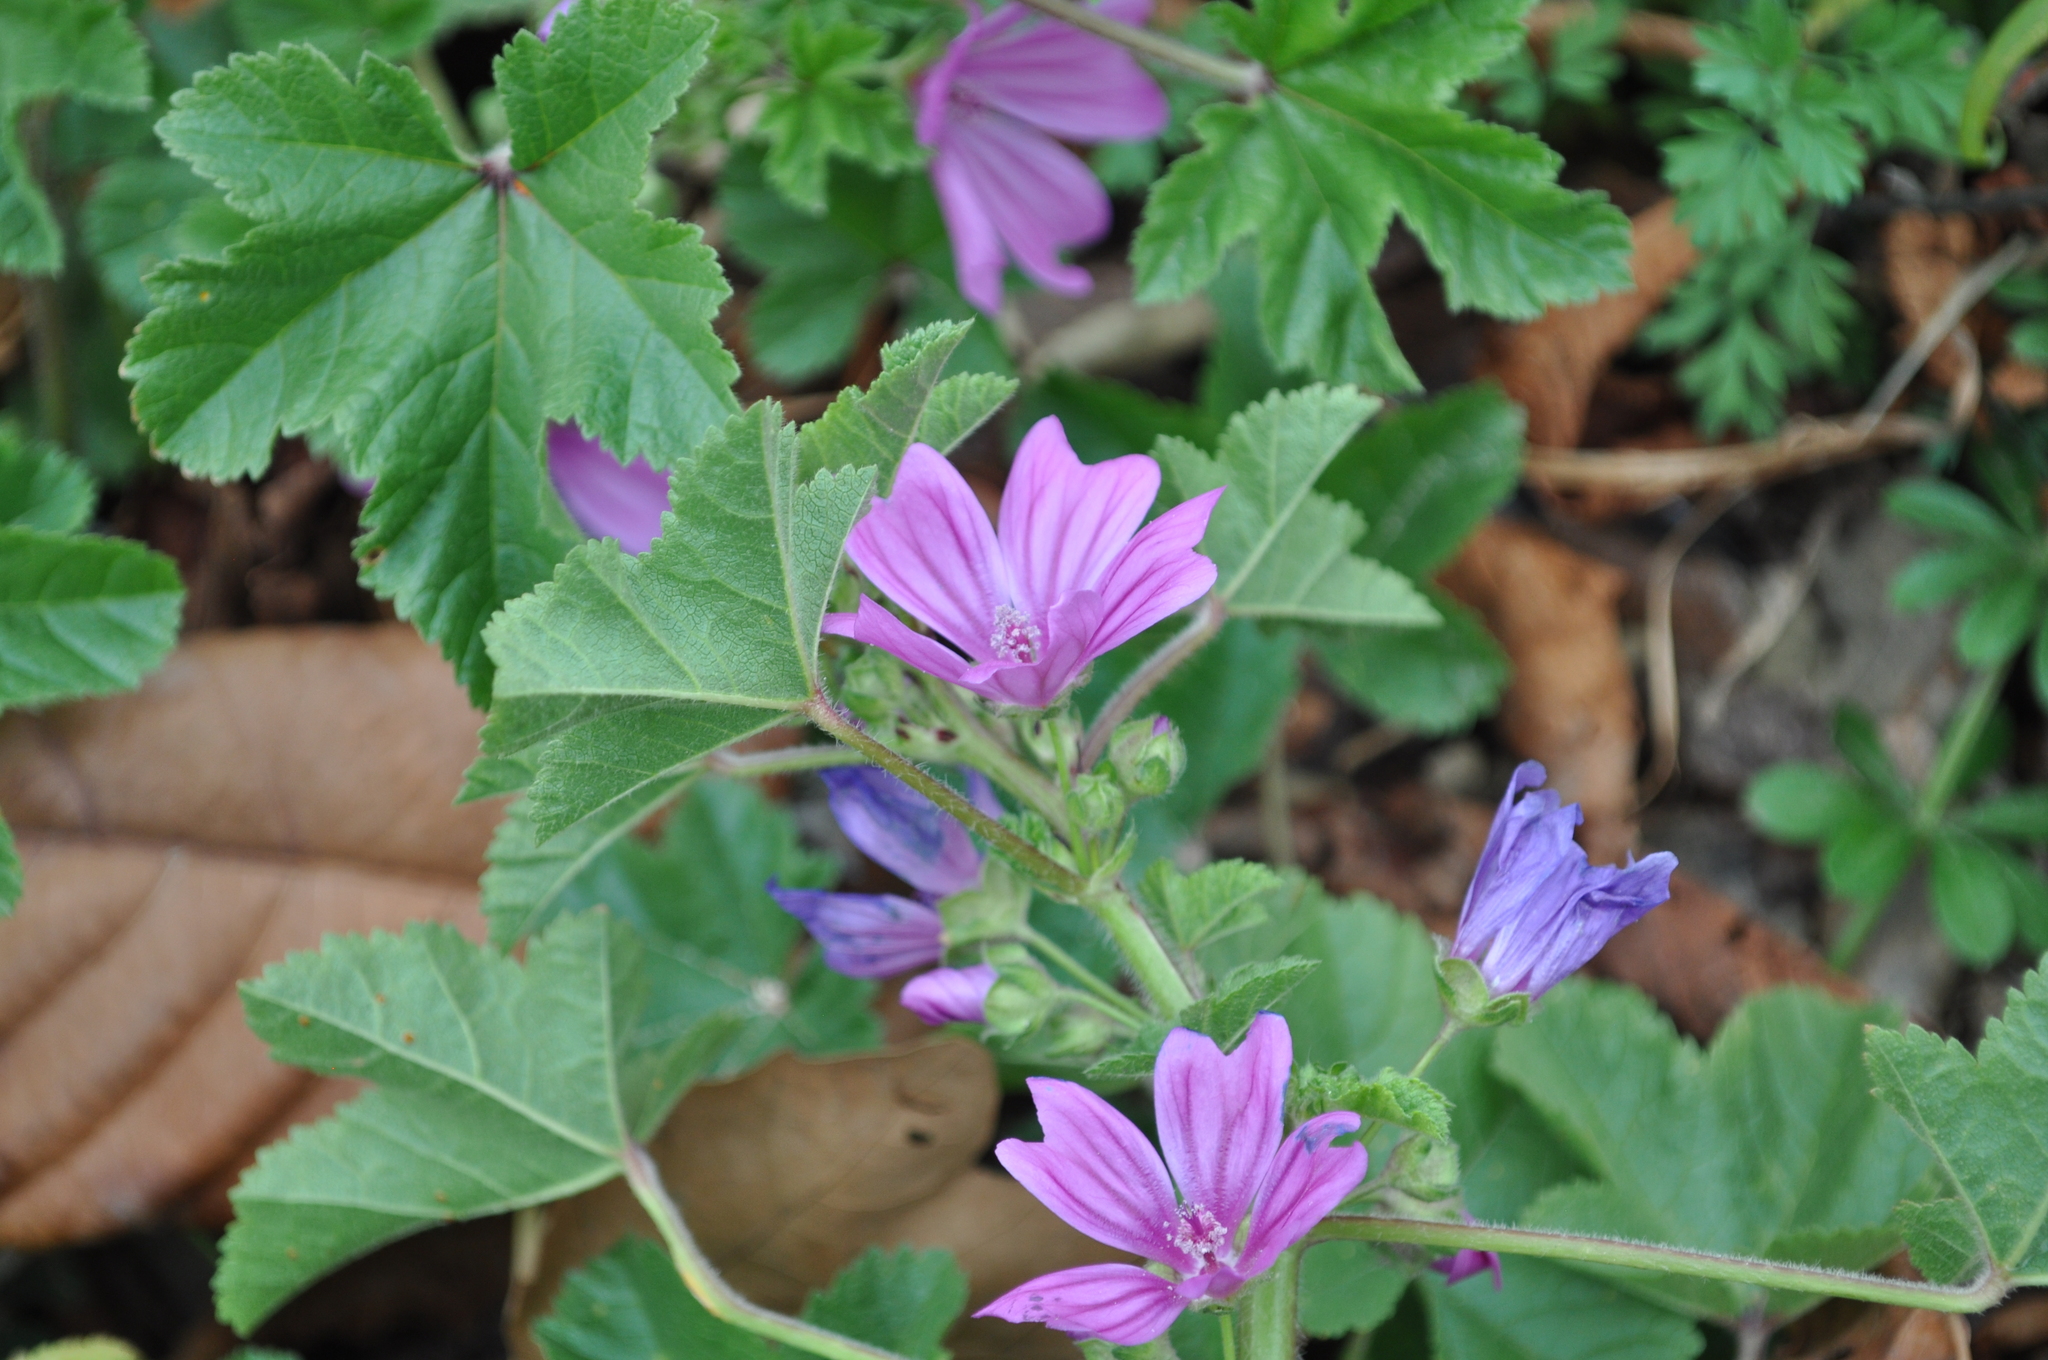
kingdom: Plantae
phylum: Tracheophyta
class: Magnoliopsida
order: Malvales
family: Malvaceae
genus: Malva
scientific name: Malva sylvestris
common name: Common mallow
